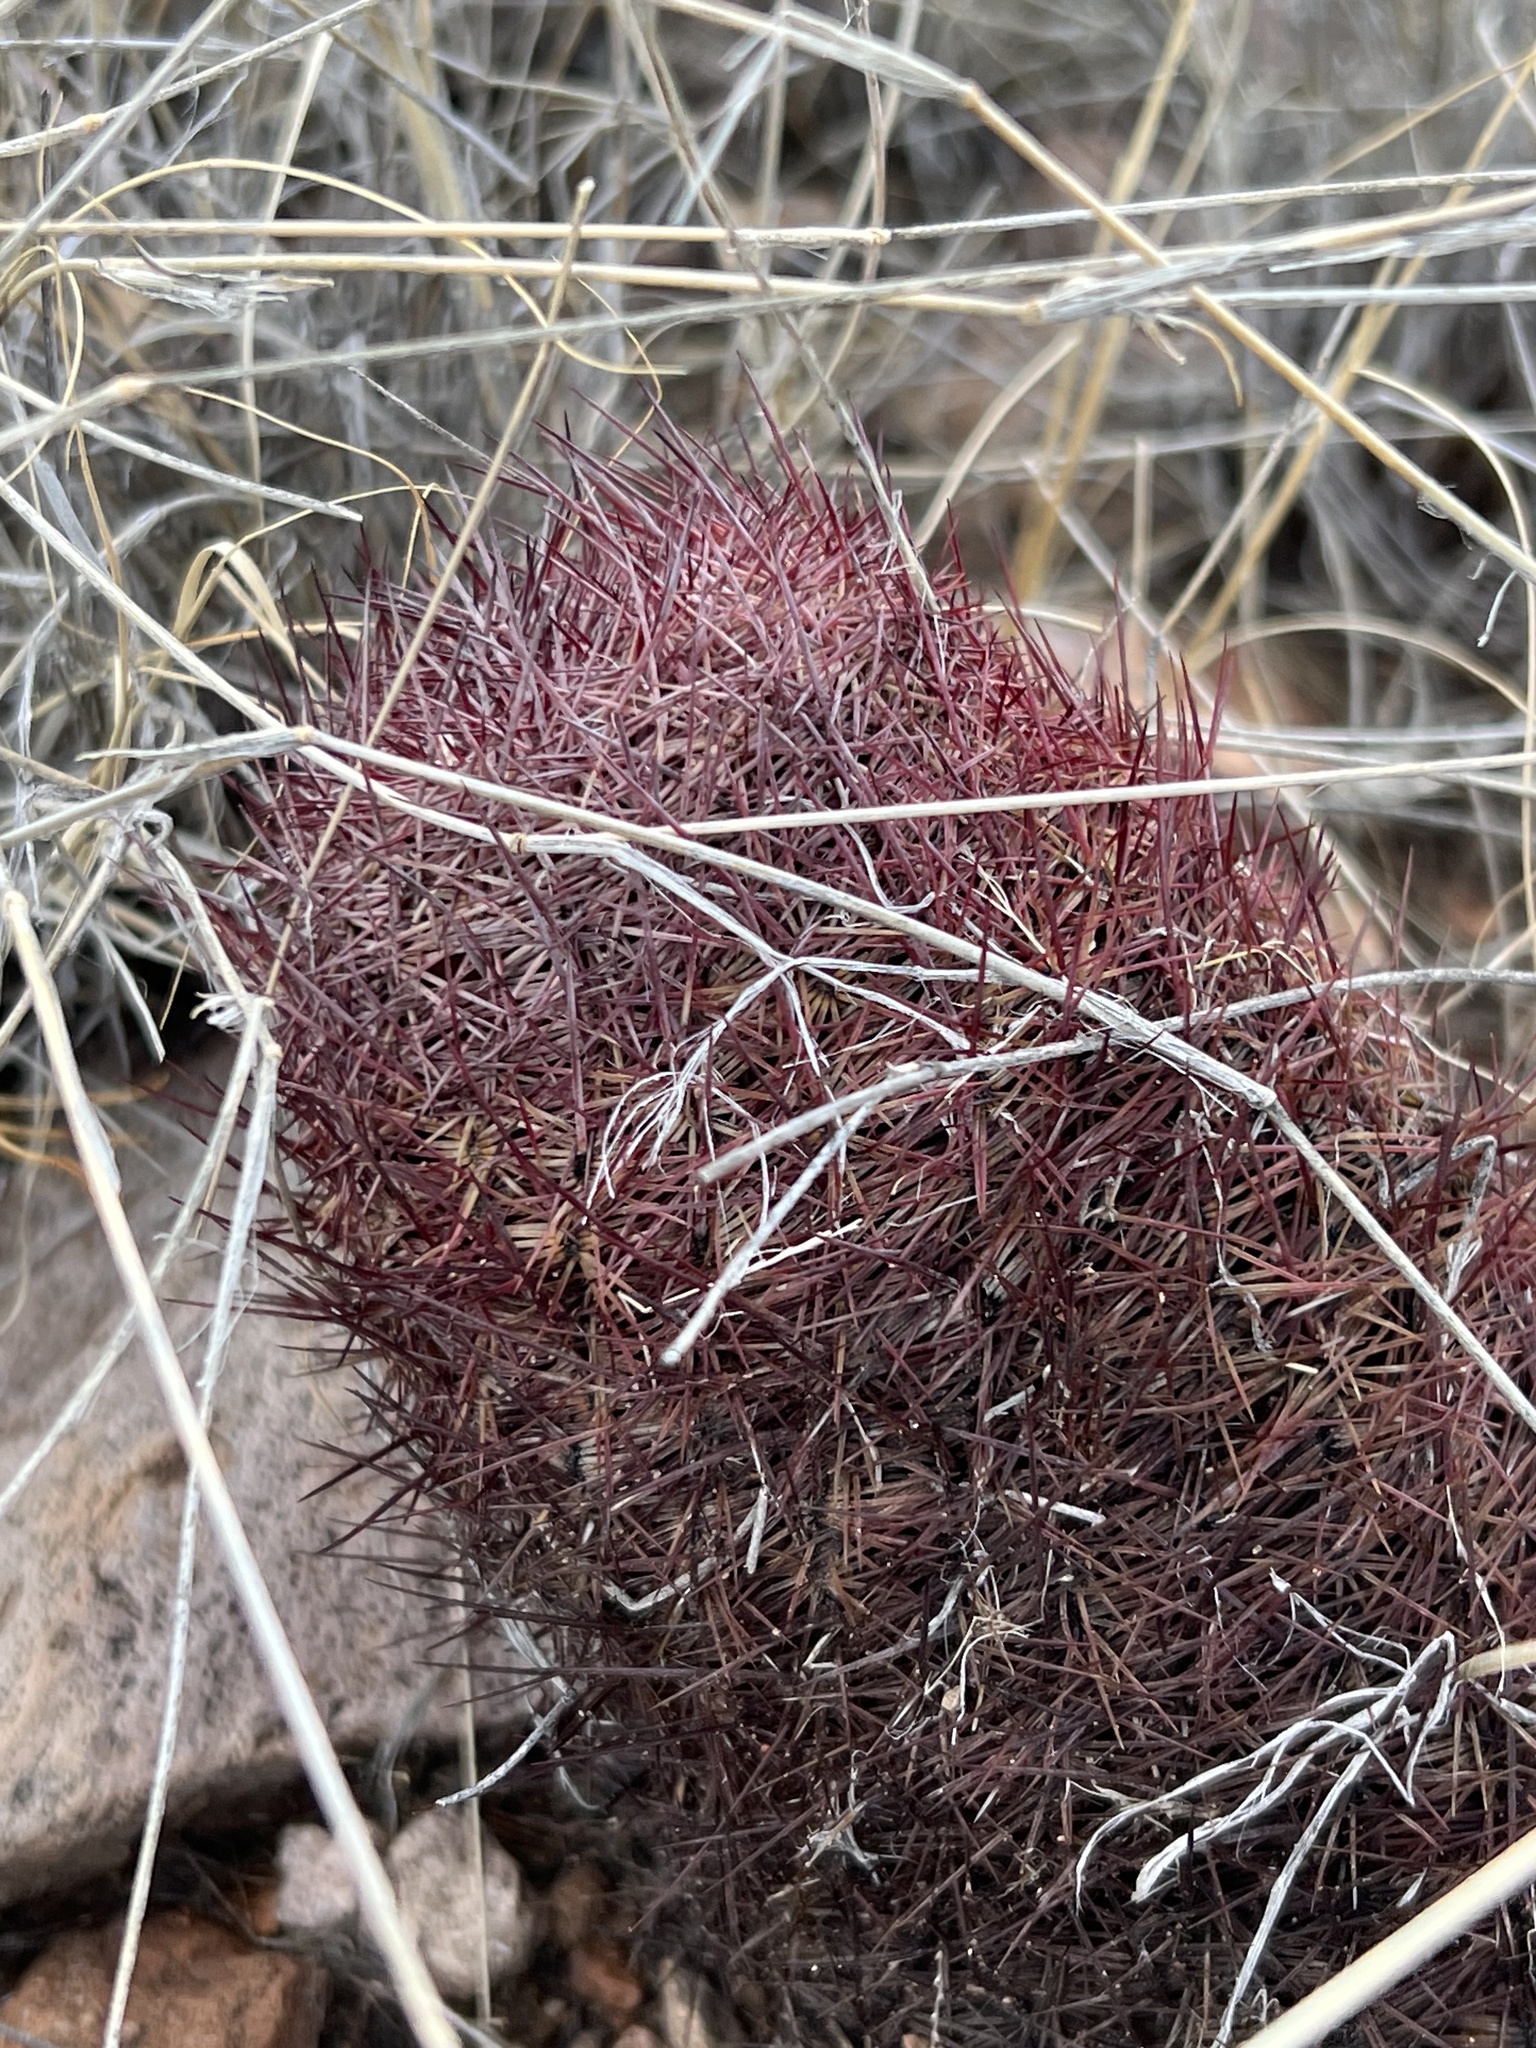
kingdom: Plantae
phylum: Tracheophyta
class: Magnoliopsida
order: Caryophyllales
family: Cactaceae
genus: Sclerocactus
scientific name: Sclerocactus johnsonii
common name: Eight-spine fishhook cactus
